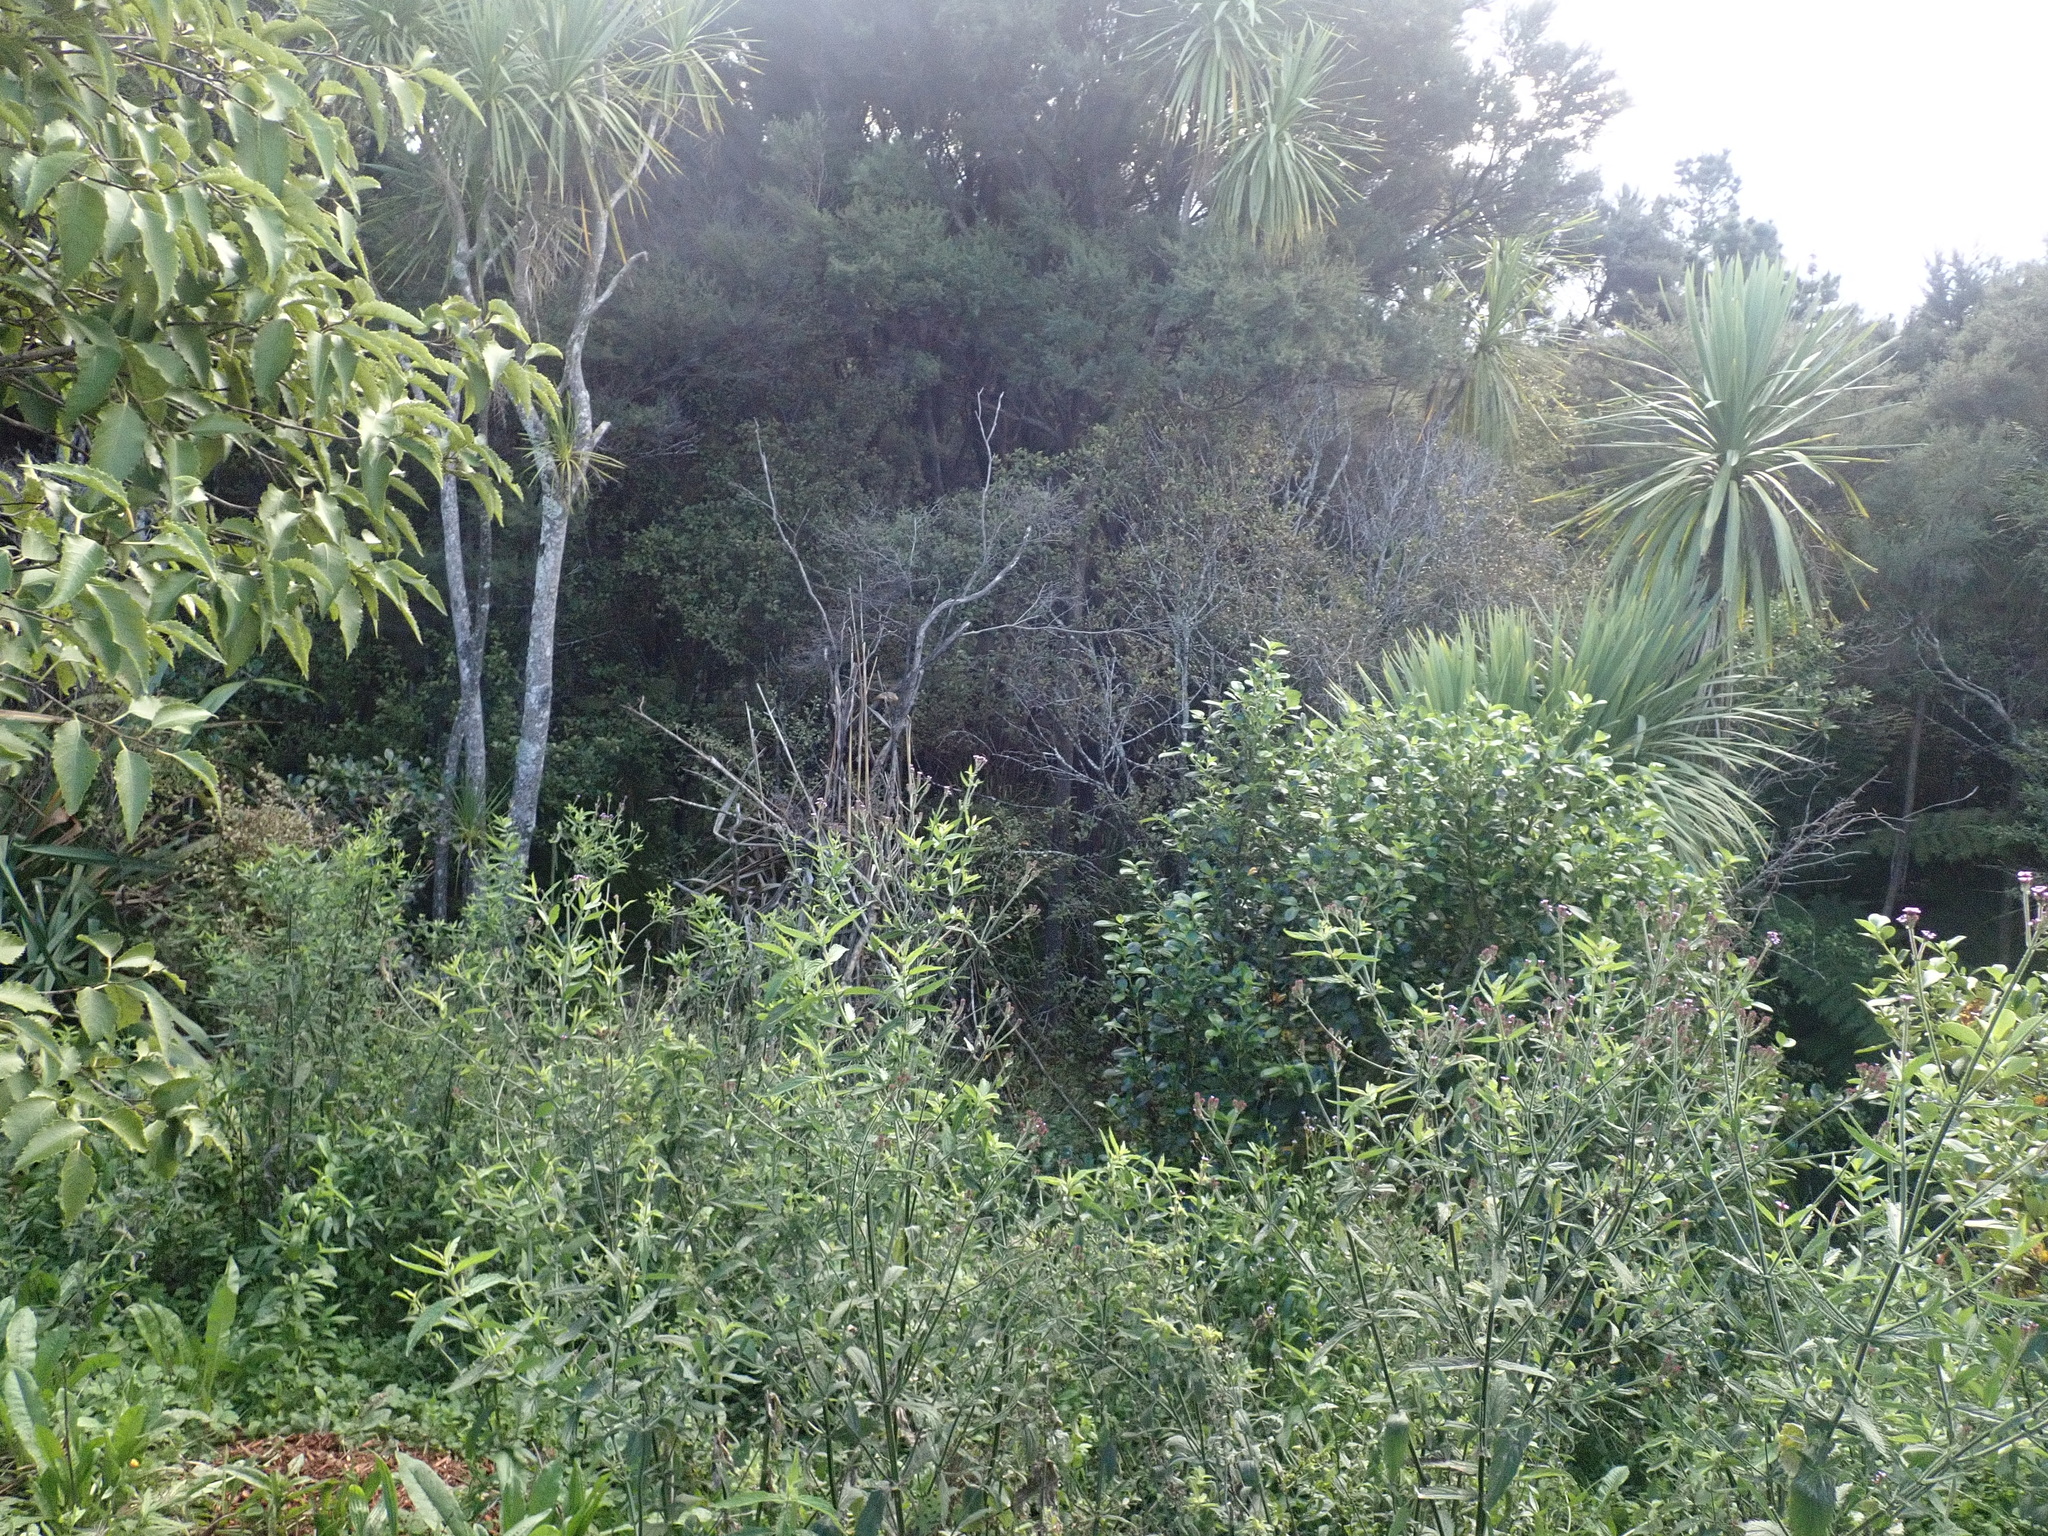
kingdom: Plantae
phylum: Tracheophyta
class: Magnoliopsida
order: Gentianales
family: Rubiaceae
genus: Coprosma
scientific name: Coprosma robusta
